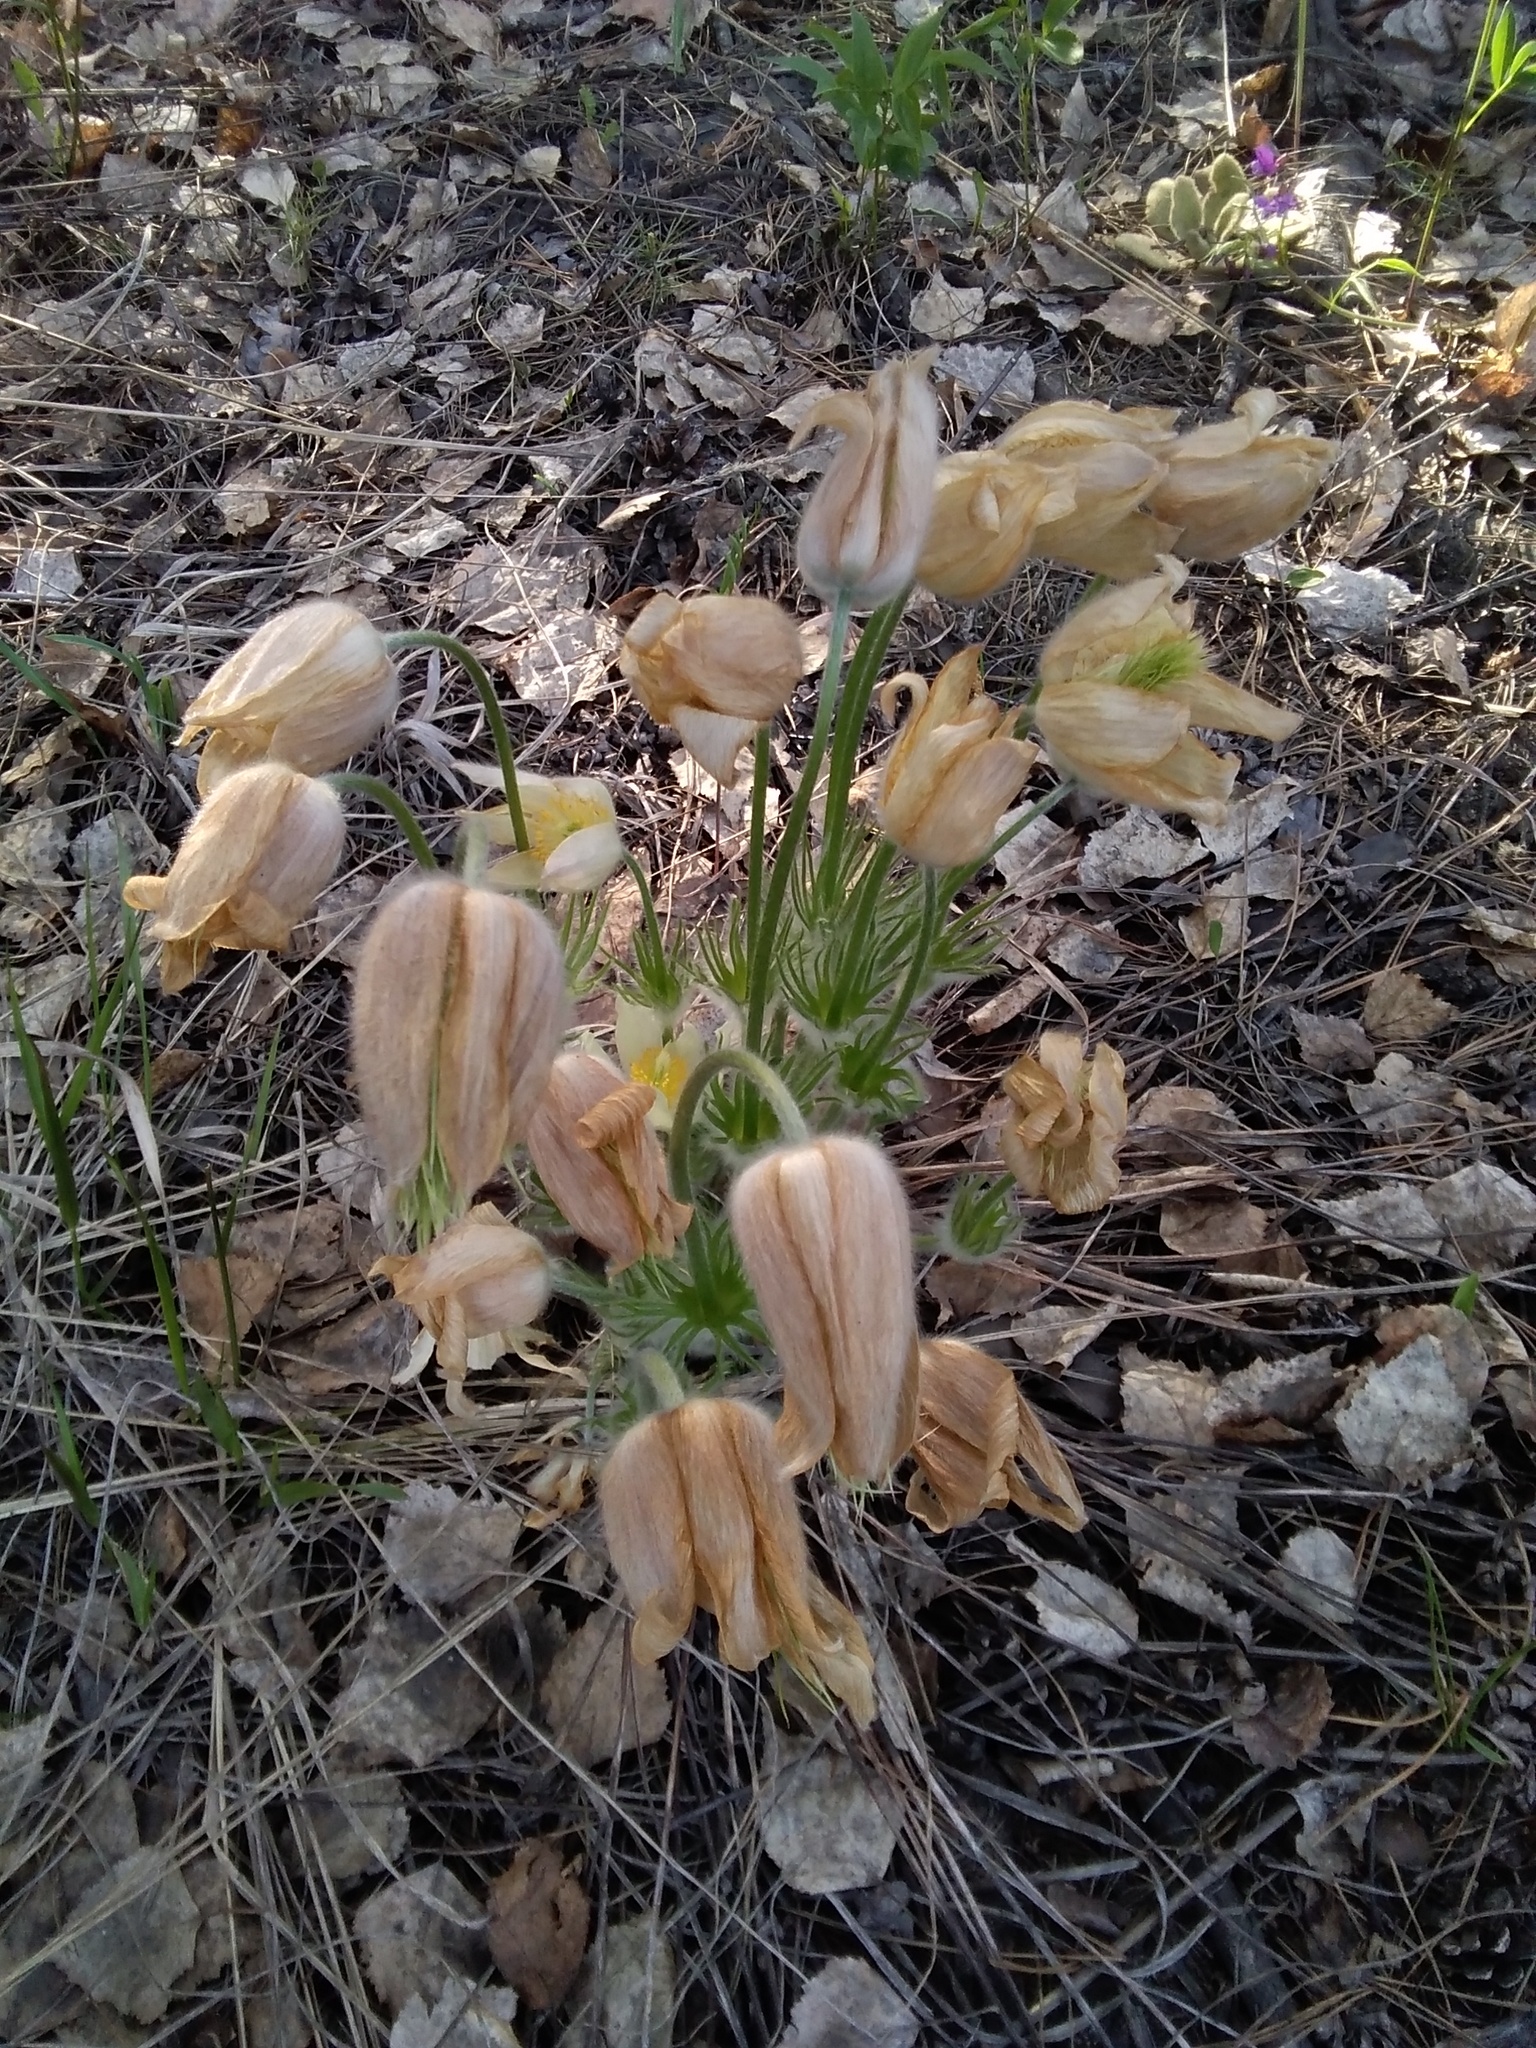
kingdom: Plantae
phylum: Tracheophyta
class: Magnoliopsida
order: Ranunculales
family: Ranunculaceae
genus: Pulsatilla
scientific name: Pulsatilla patens
